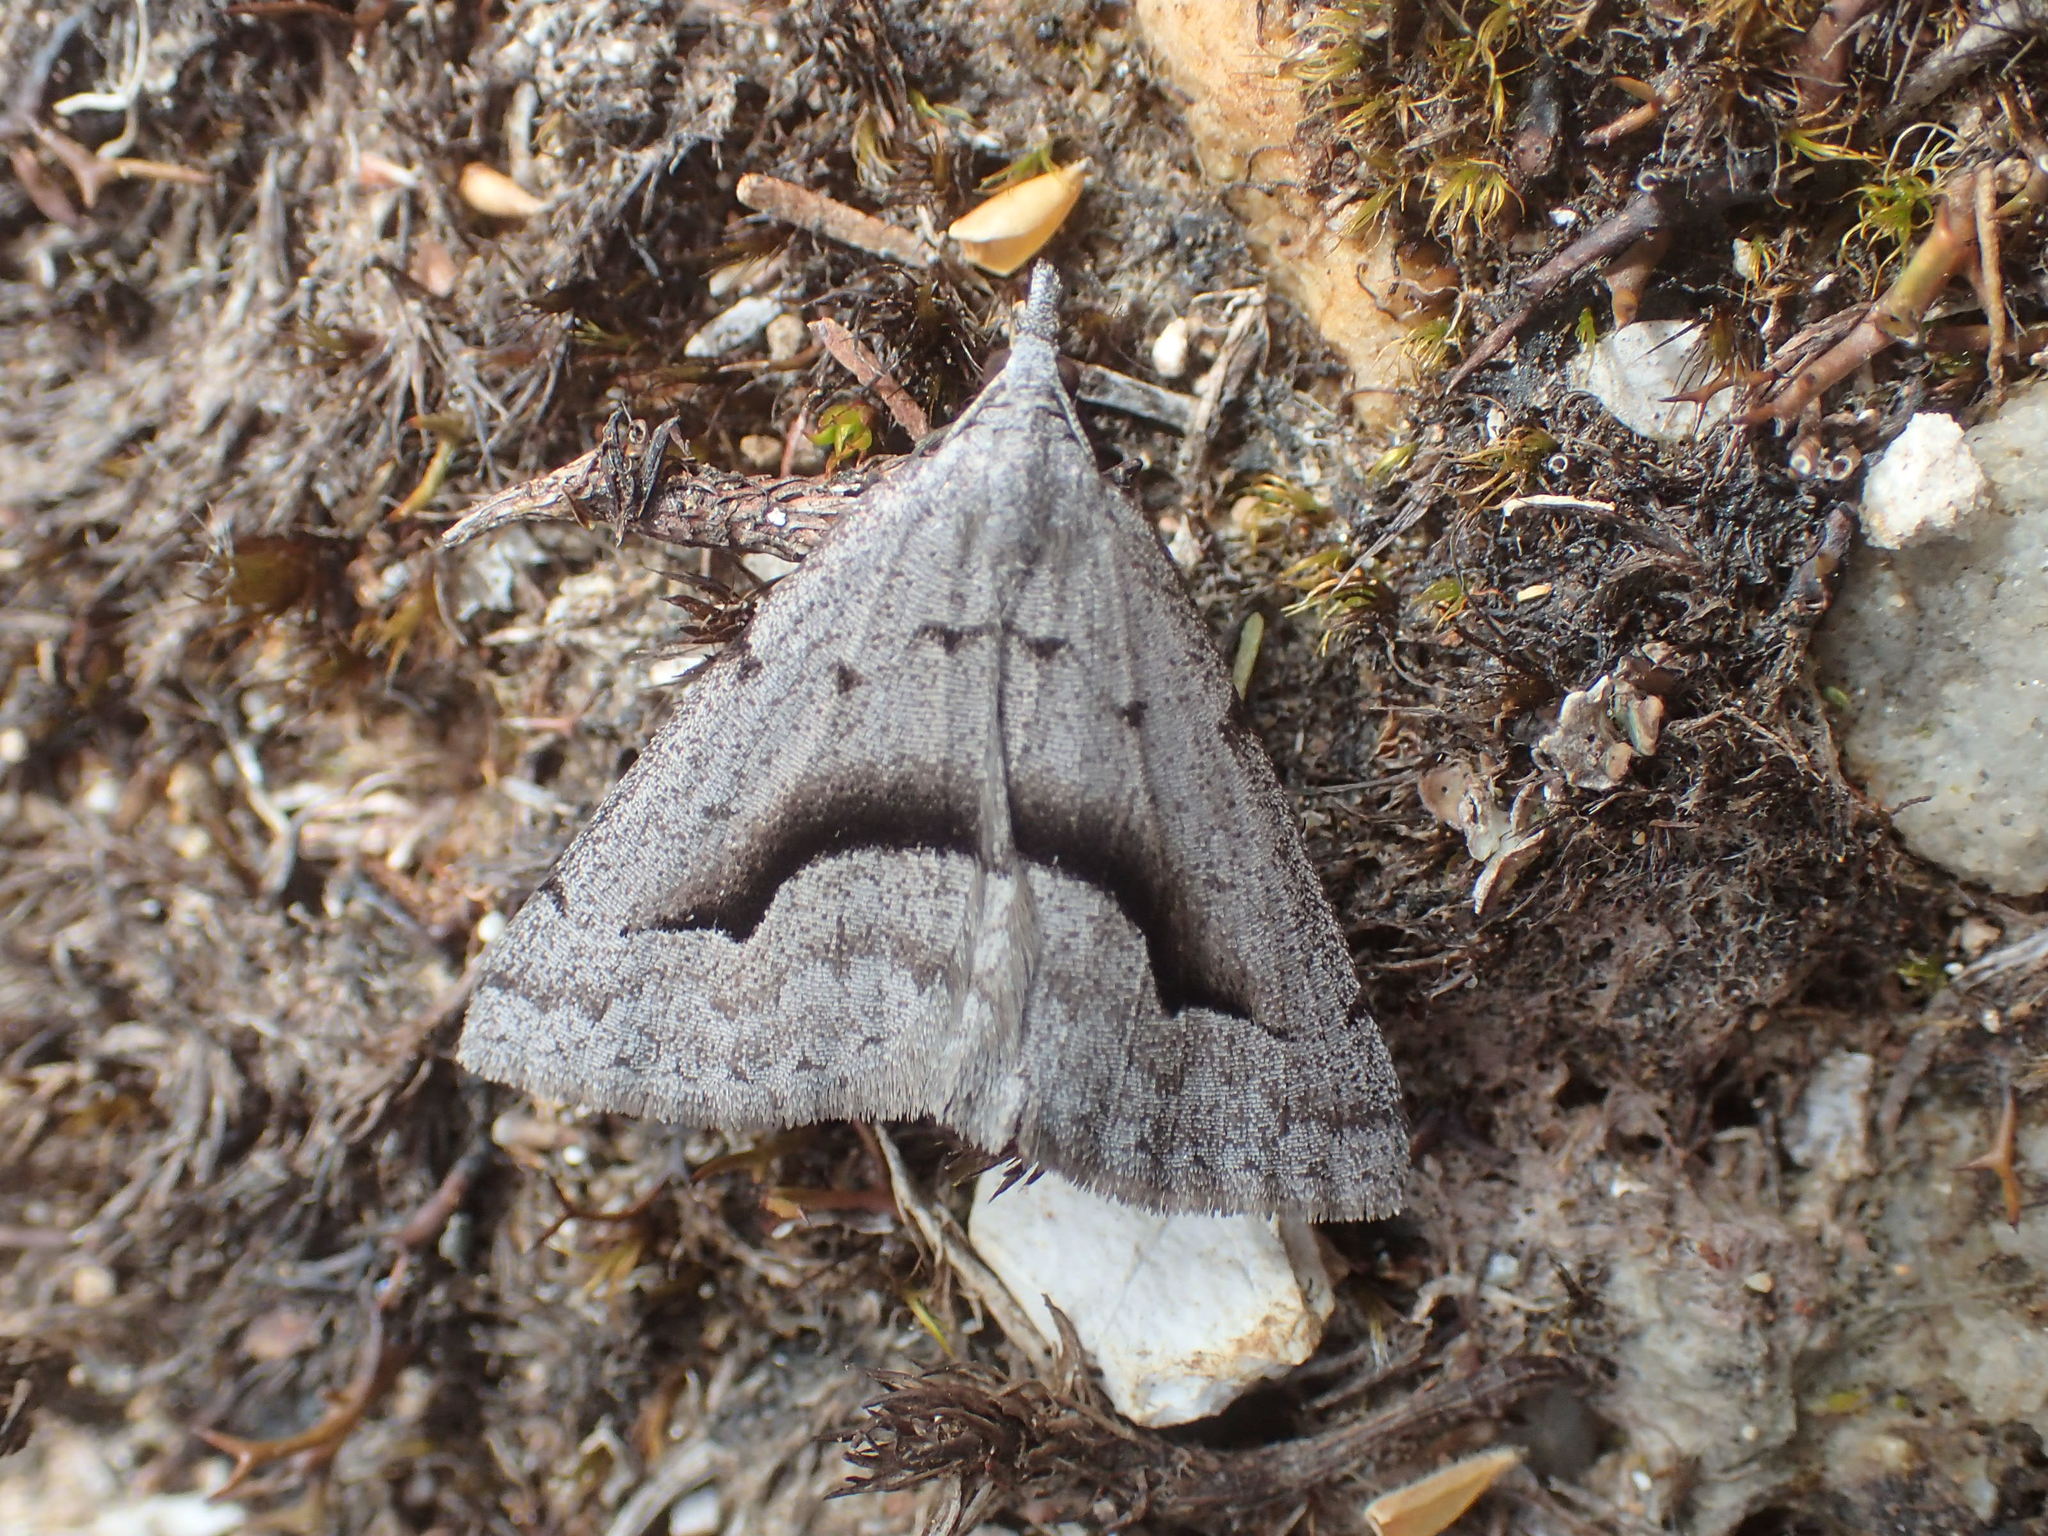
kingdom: Animalia
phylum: Arthropoda
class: Insecta
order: Lepidoptera
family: Geometridae
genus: Dichromodes
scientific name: Dichromodes euscia
